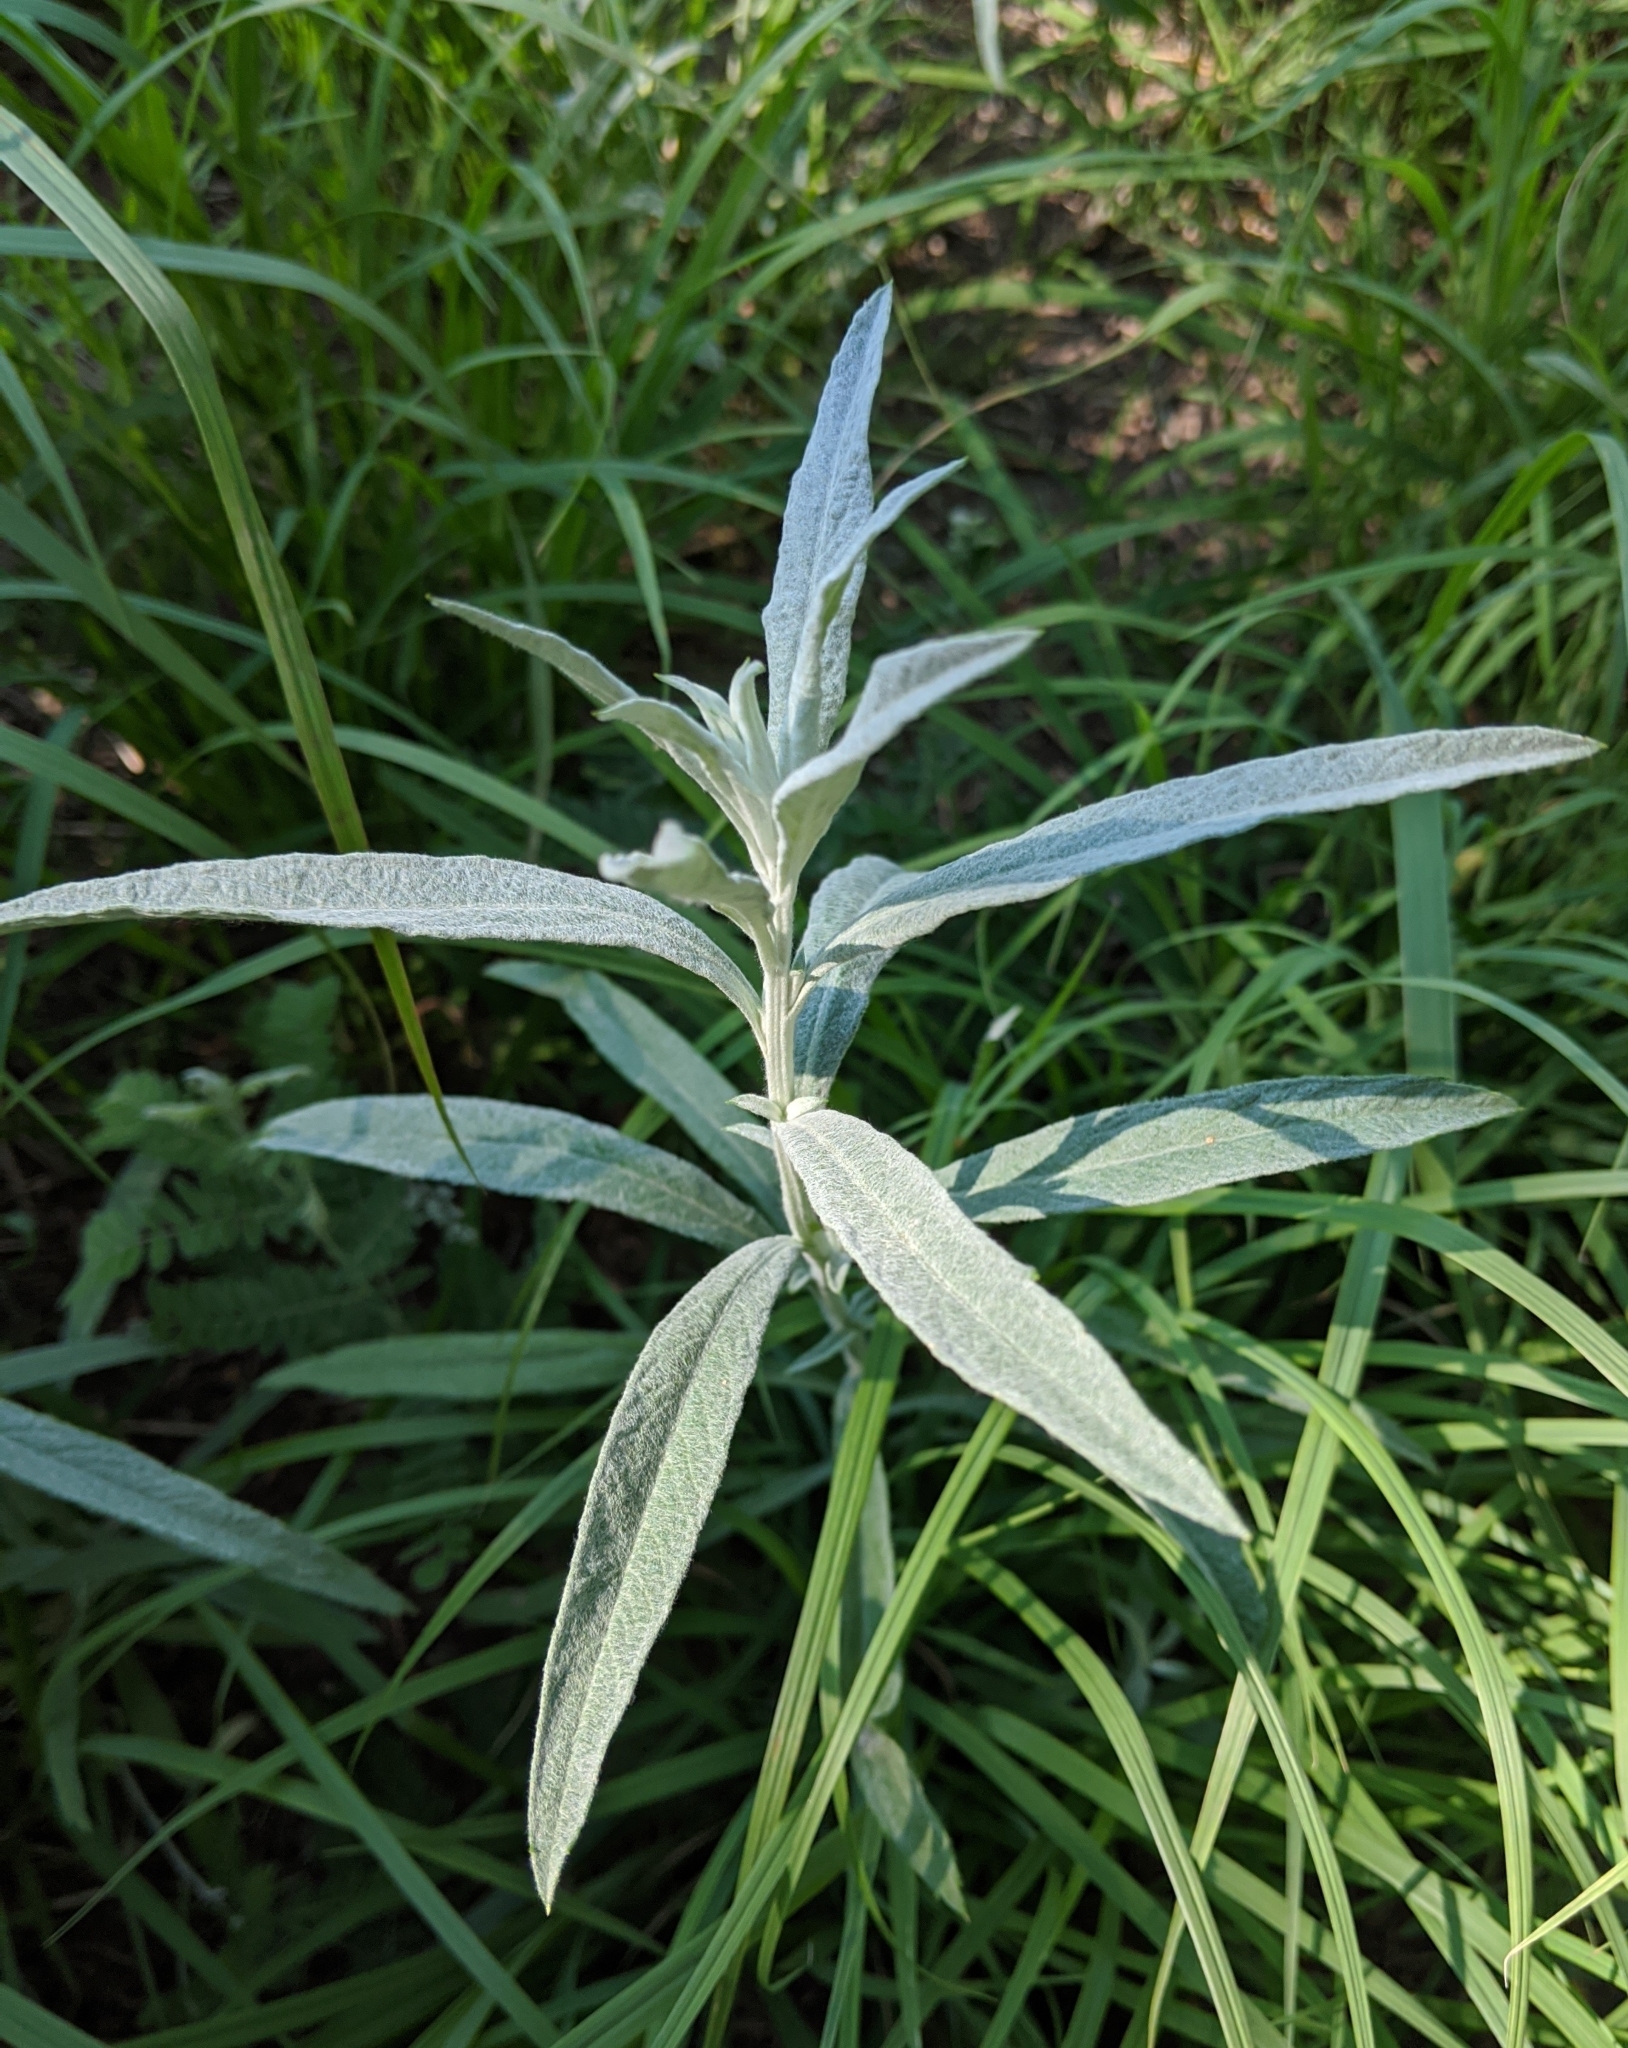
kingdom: Plantae
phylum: Tracheophyta
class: Magnoliopsida
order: Asterales
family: Asteraceae
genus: Artemisia
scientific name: Artemisia ludoviciana
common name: Western mugwort
